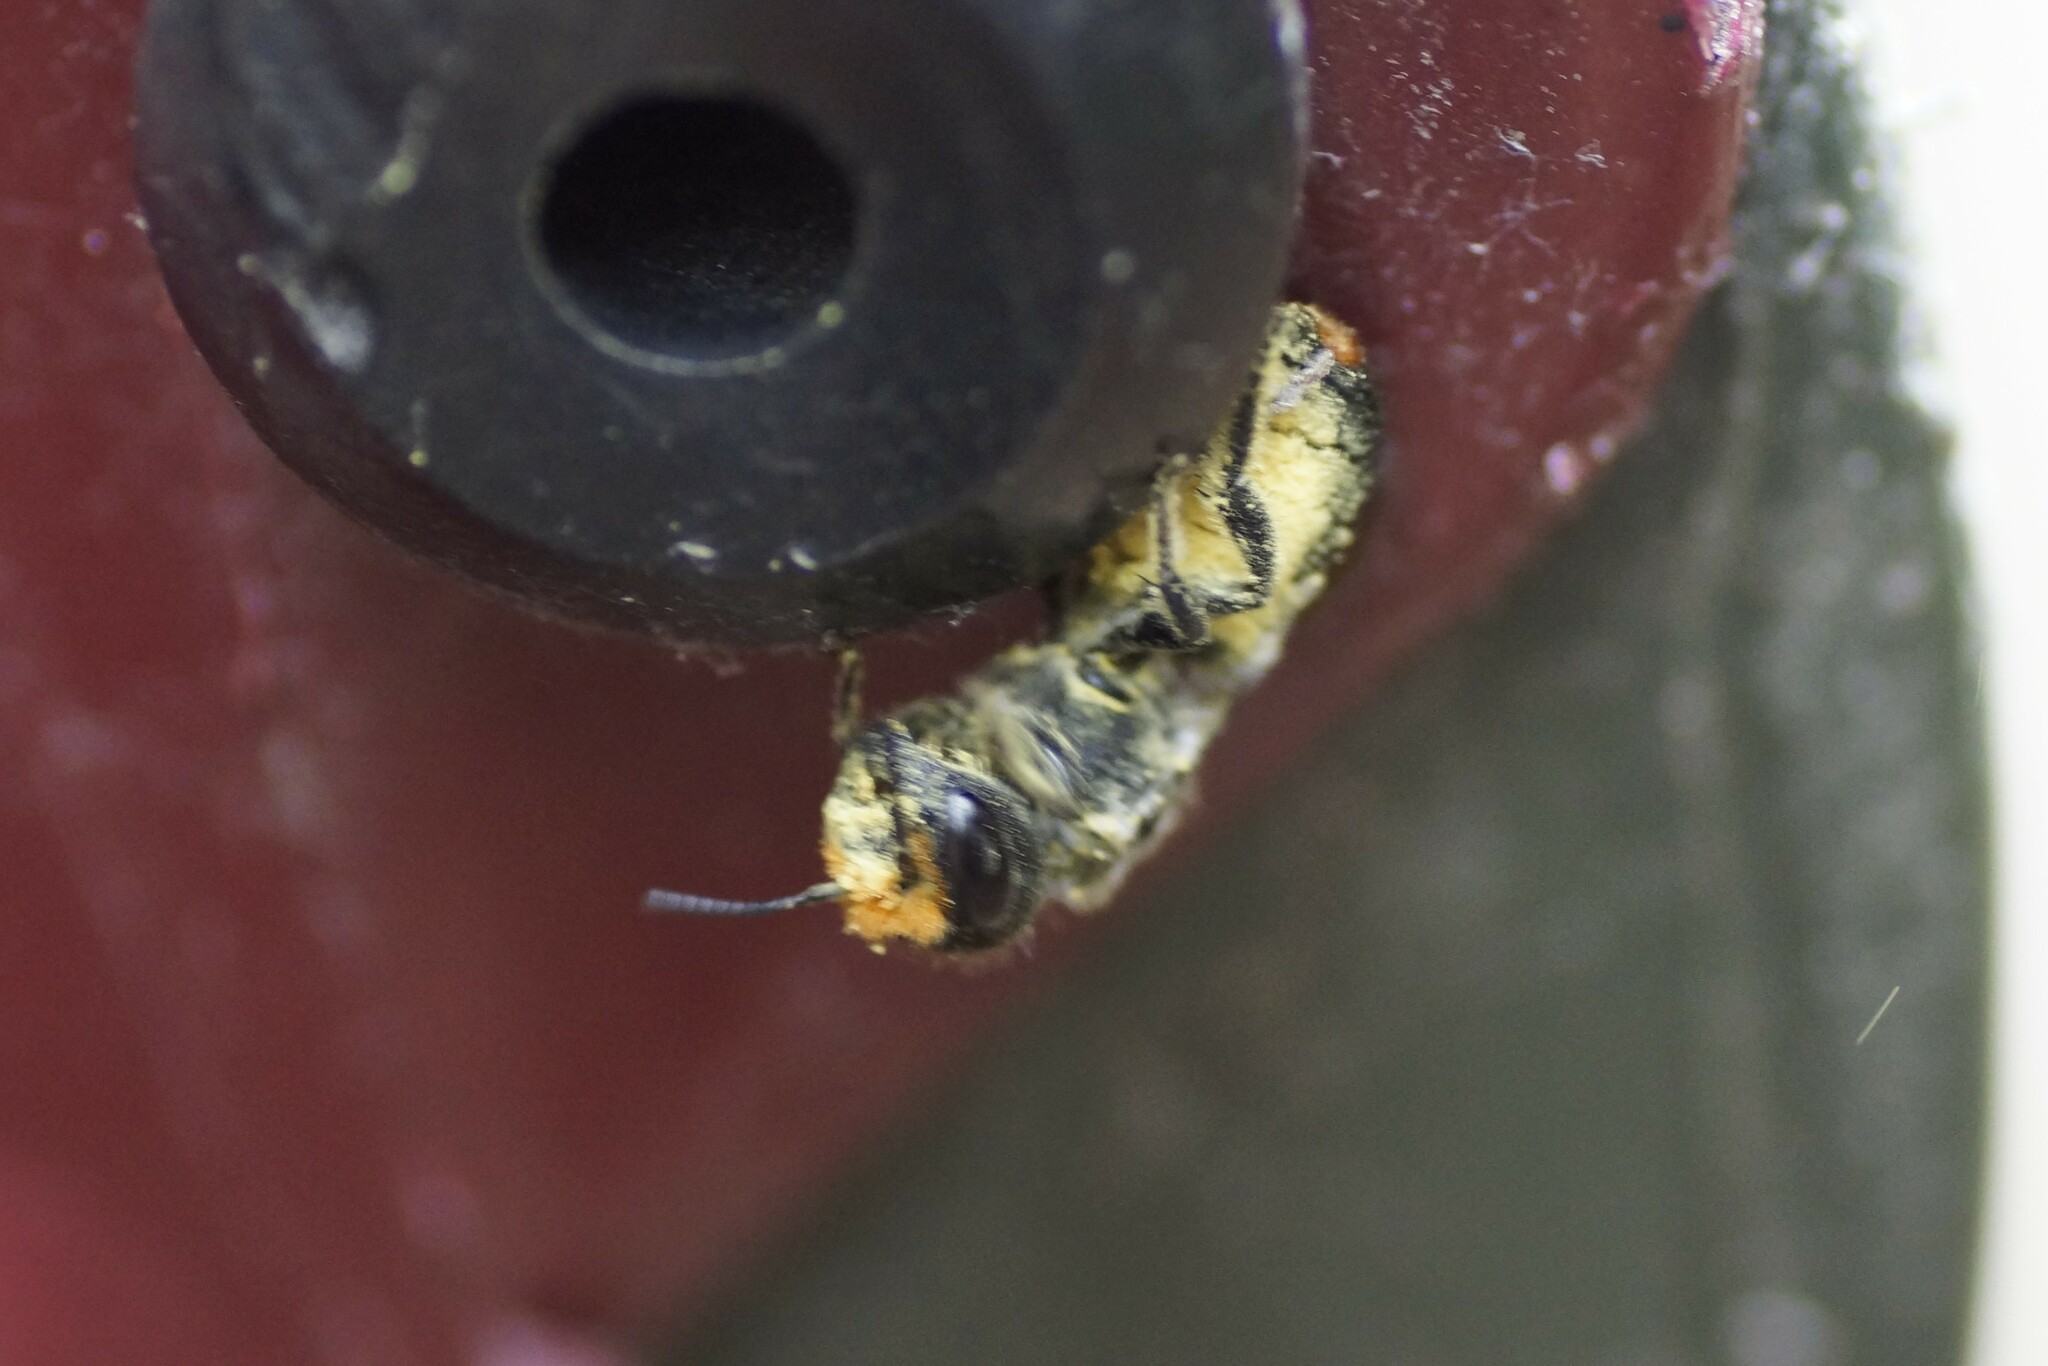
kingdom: Animalia
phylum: Arthropoda
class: Insecta
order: Hymenoptera
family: Megachilidae
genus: Megachile
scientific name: Megachile erythropyga
